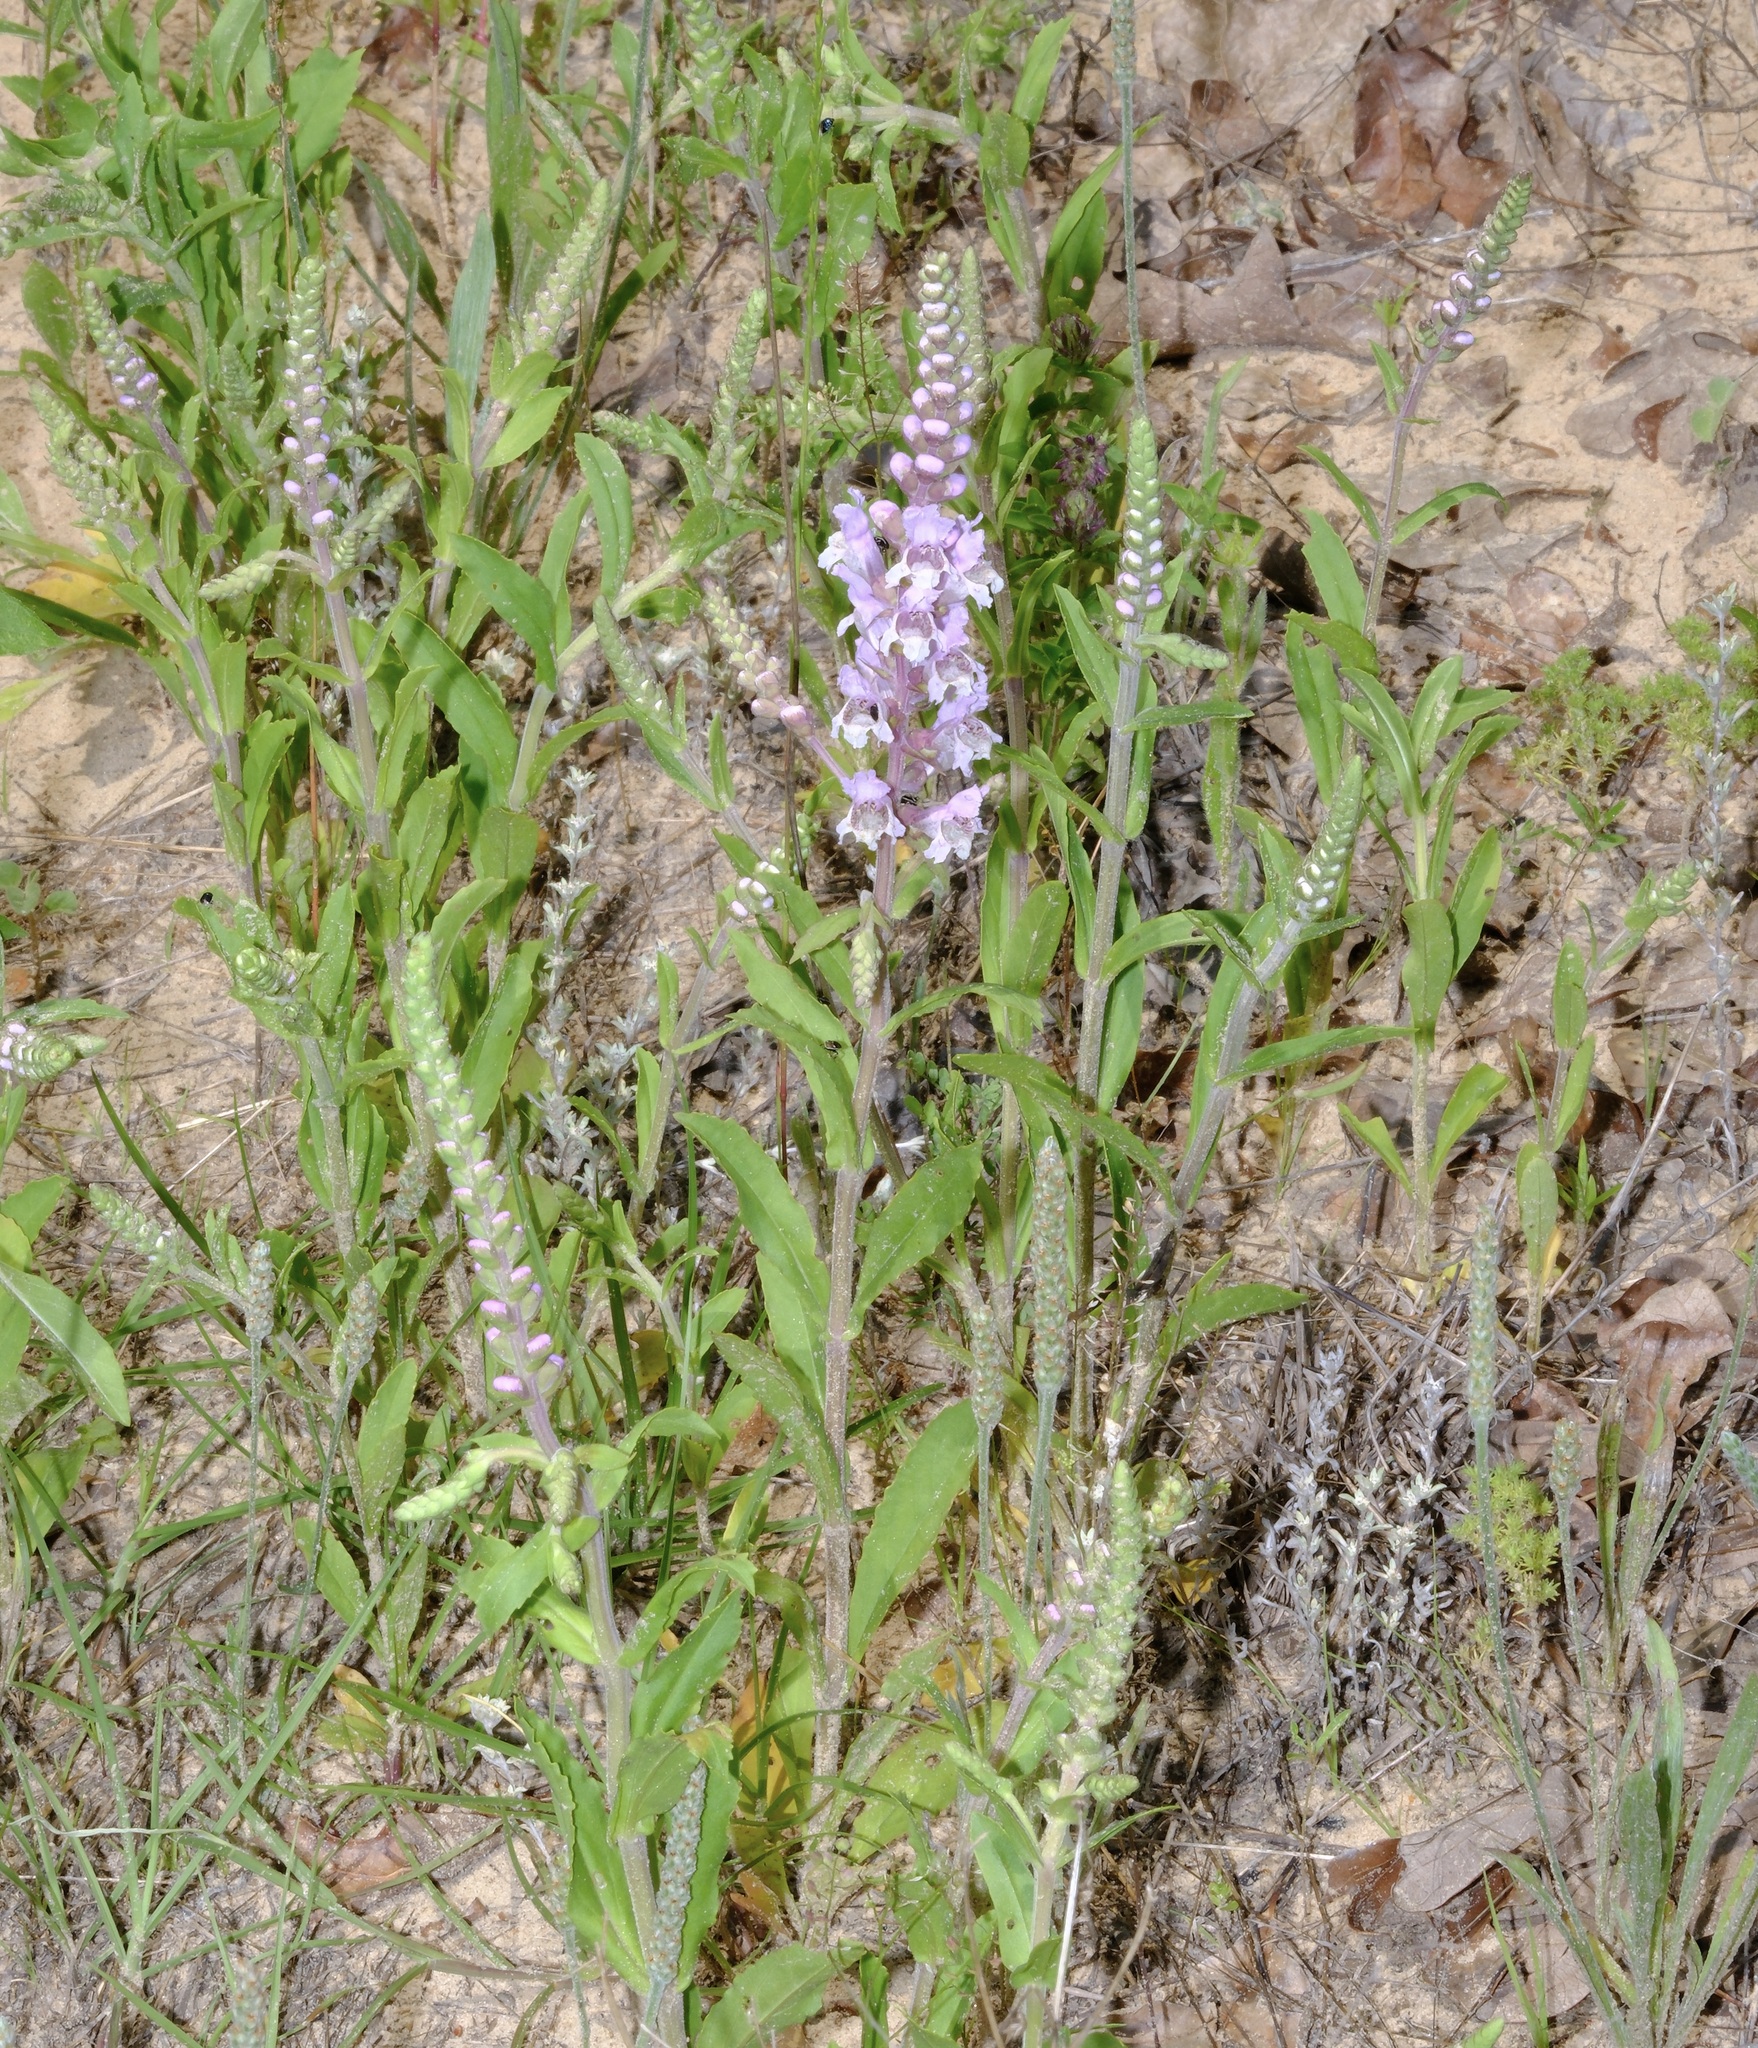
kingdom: Plantae
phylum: Tracheophyta
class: Magnoliopsida
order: Lamiales
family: Lamiaceae
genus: Brazoria
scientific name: Brazoria truncata
